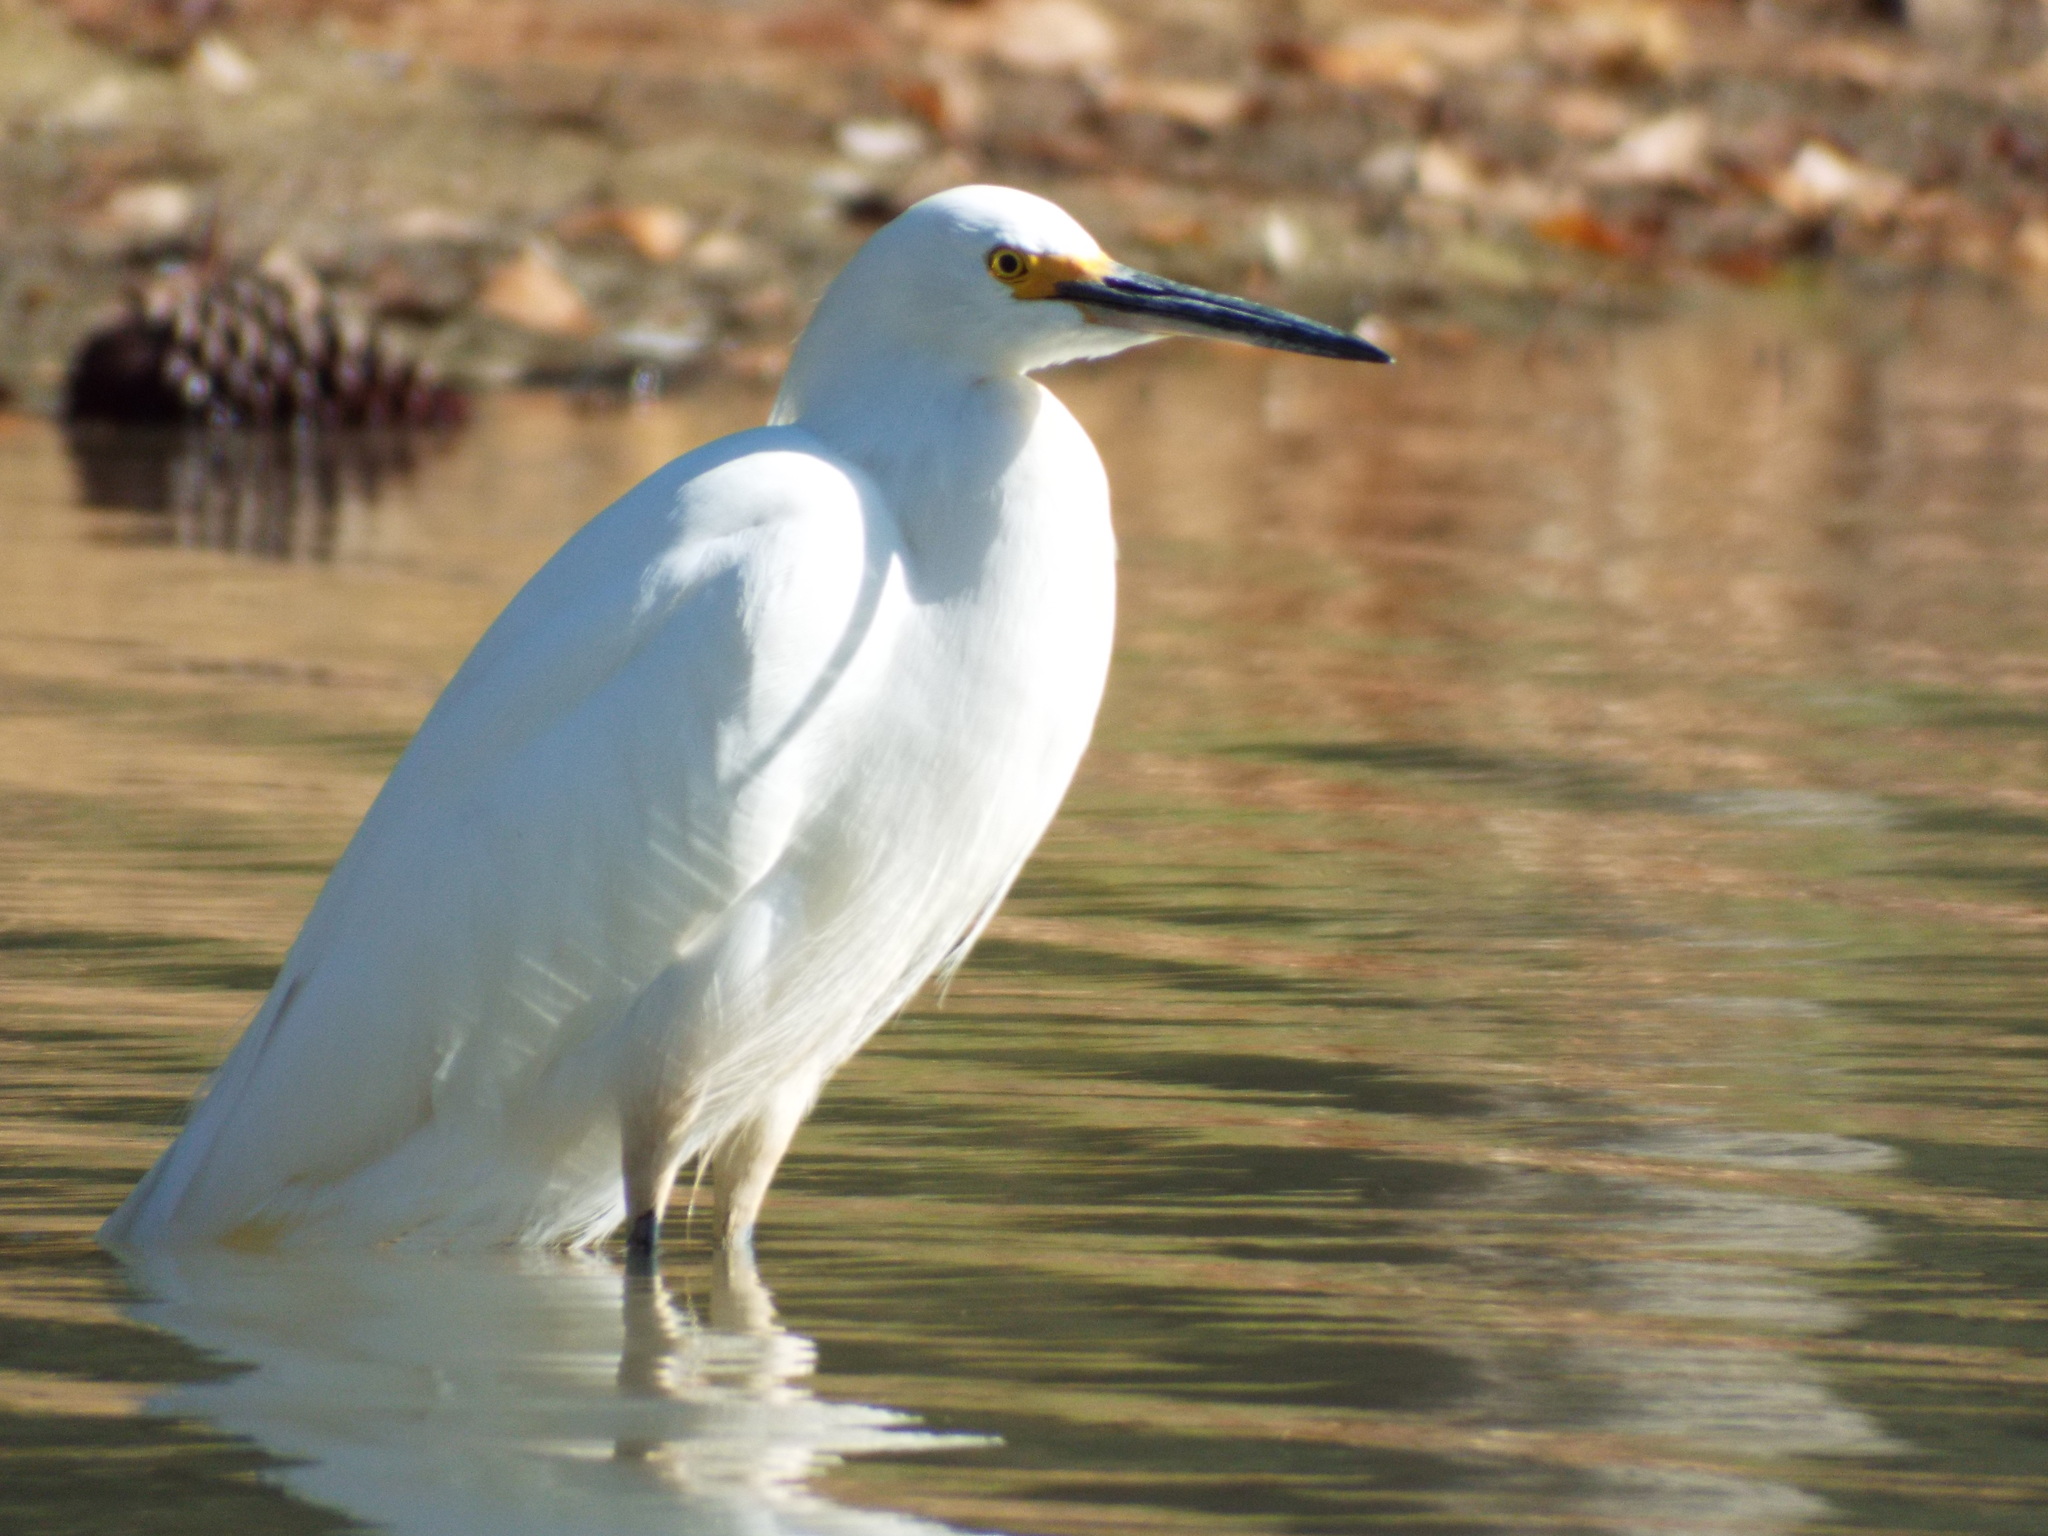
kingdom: Animalia
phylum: Chordata
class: Aves
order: Pelecaniformes
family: Ardeidae
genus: Egretta
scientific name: Egretta thula
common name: Snowy egret
